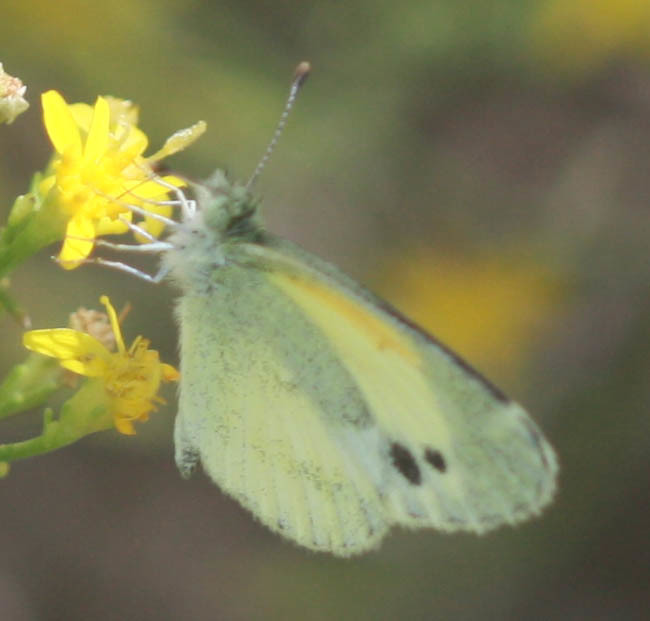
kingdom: Animalia
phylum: Arthropoda
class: Insecta
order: Lepidoptera
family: Pieridae
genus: Nathalis
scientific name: Nathalis iole
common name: Dainty sulphur
